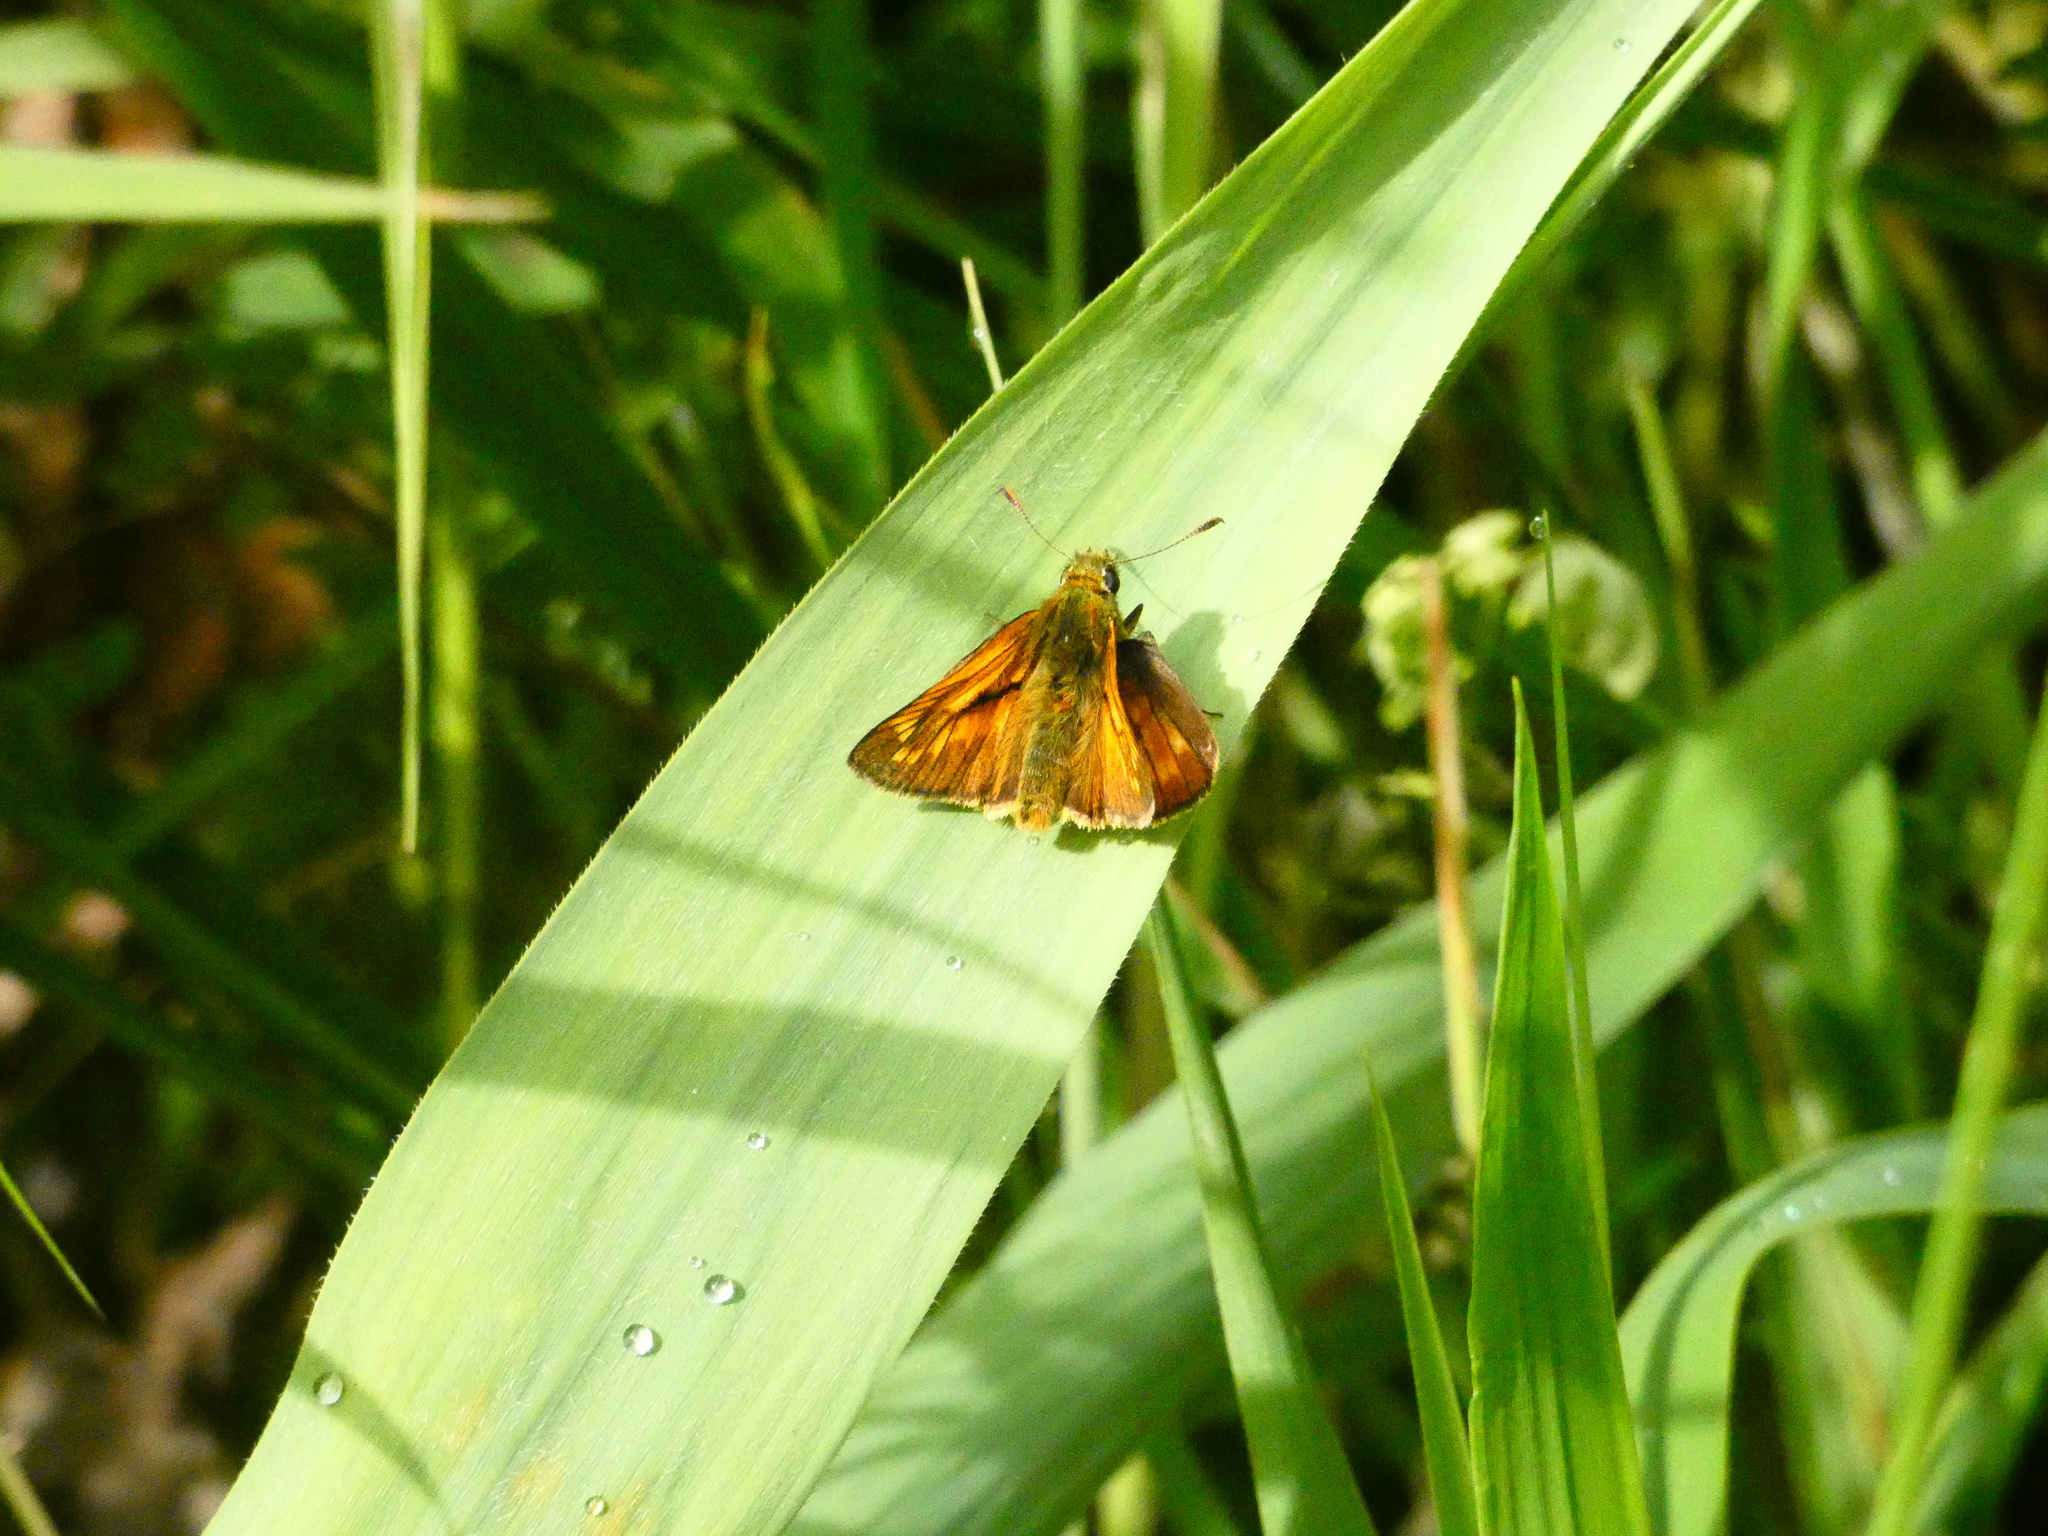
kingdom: Animalia
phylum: Arthropoda
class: Insecta
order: Lepidoptera
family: Hesperiidae
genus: Ochlodes
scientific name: Ochlodes venata
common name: Large skipper
